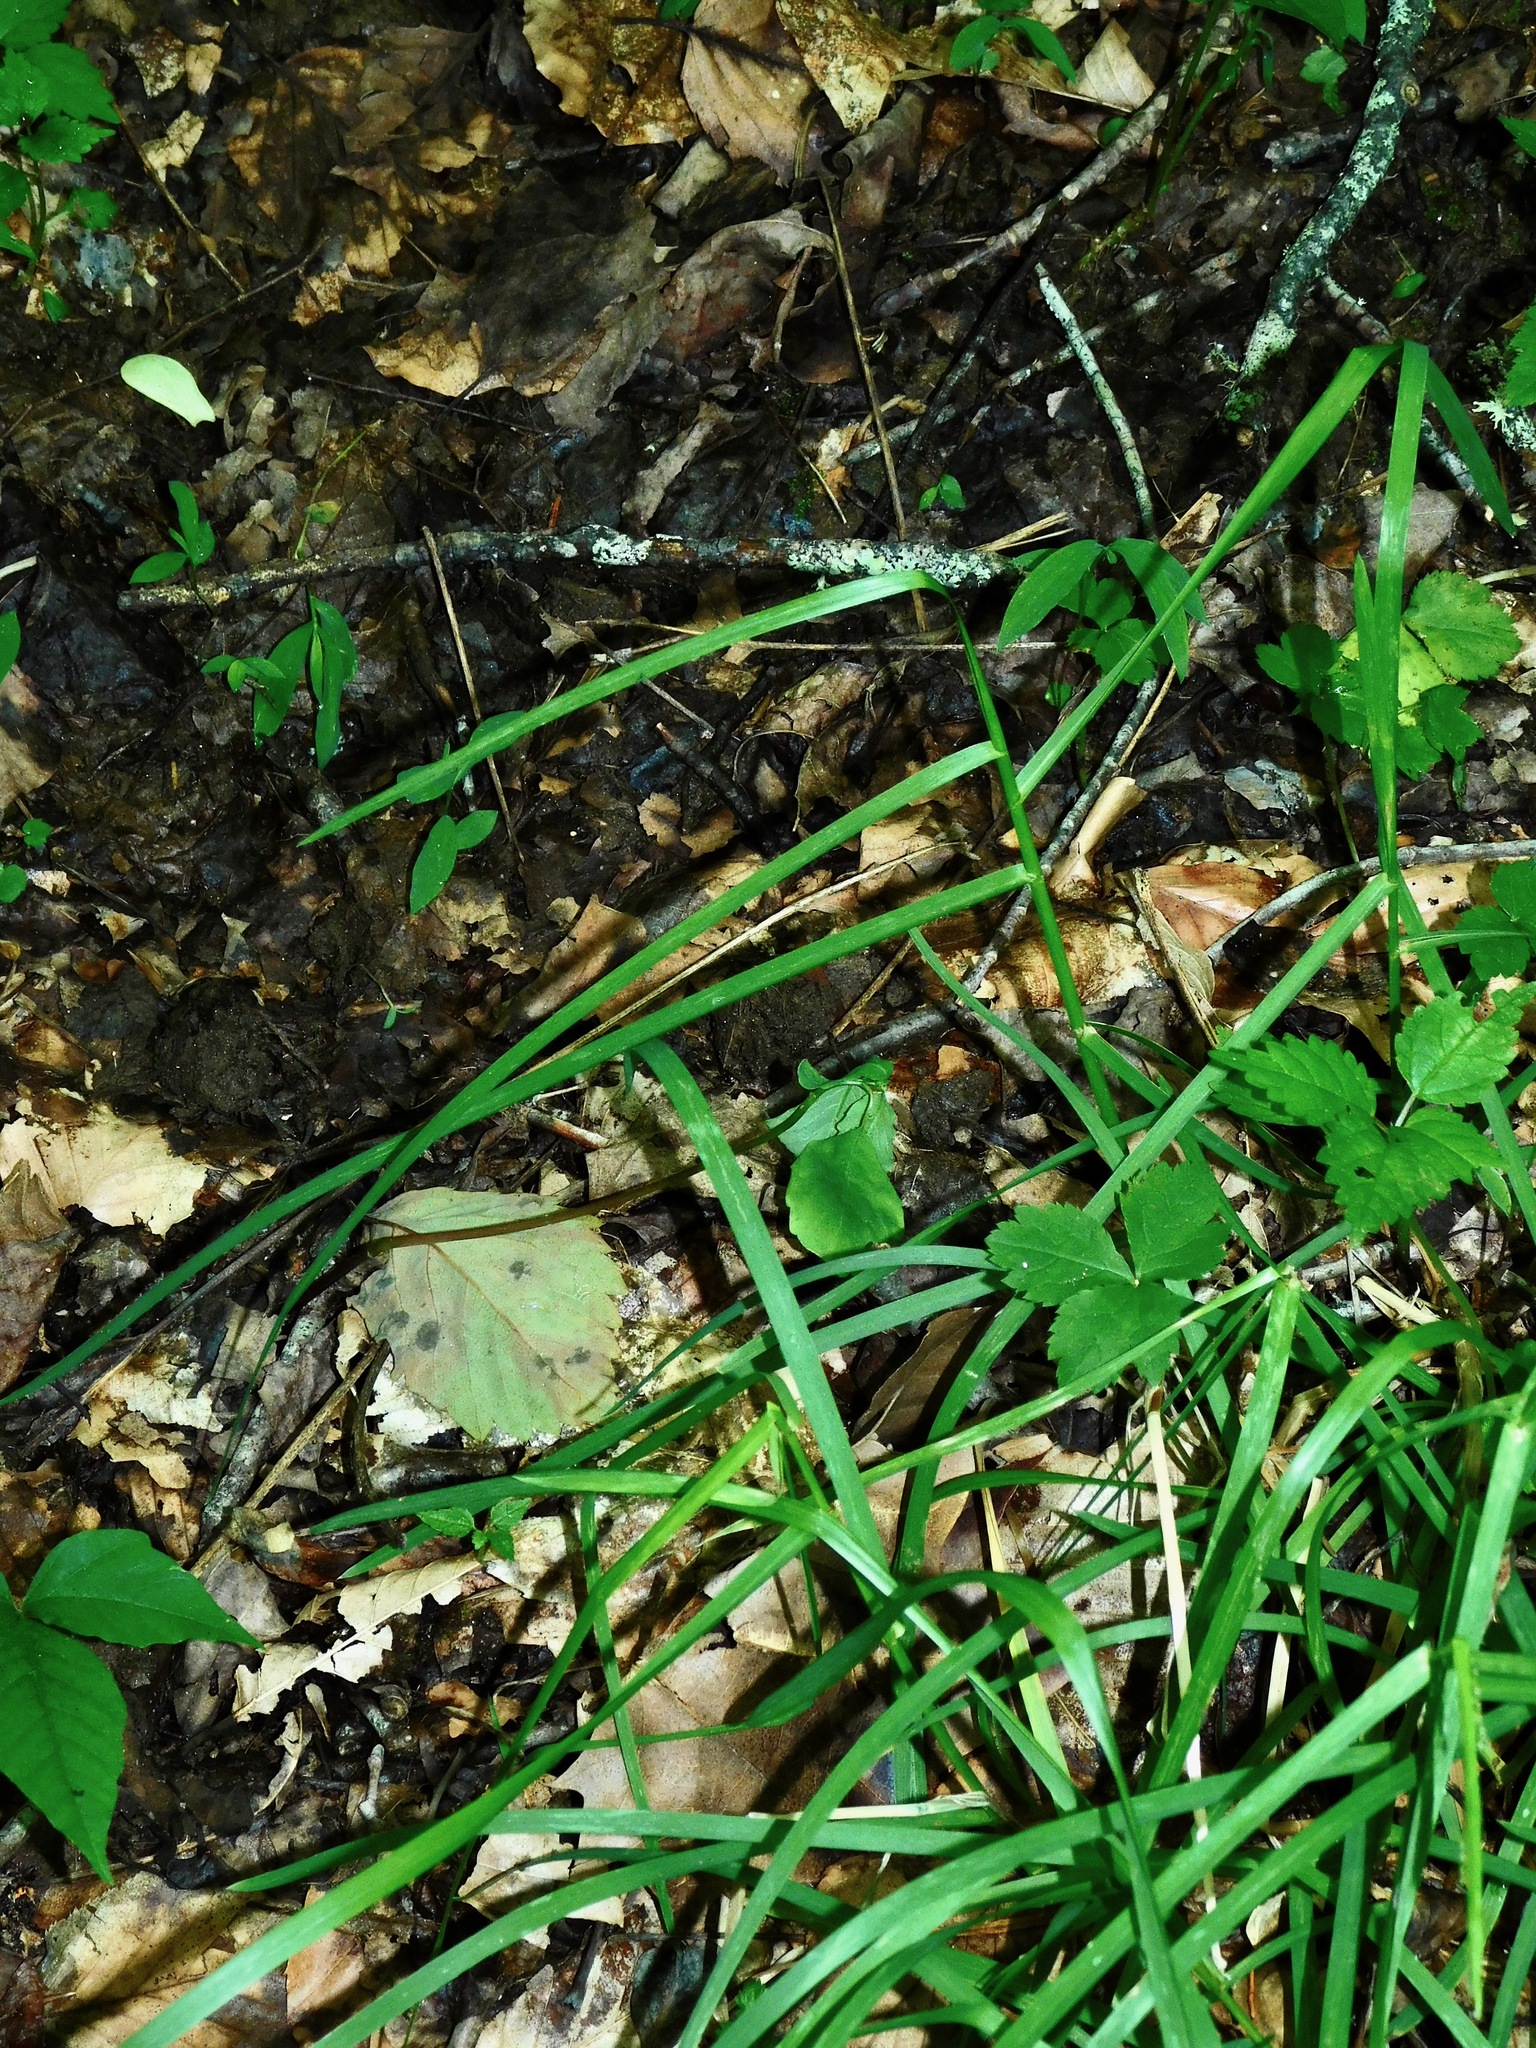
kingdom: Plantae
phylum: Tracheophyta
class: Liliopsida
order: Poales
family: Poaceae
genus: Glyceria
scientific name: Glyceria melicaria
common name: Long mannagrass
